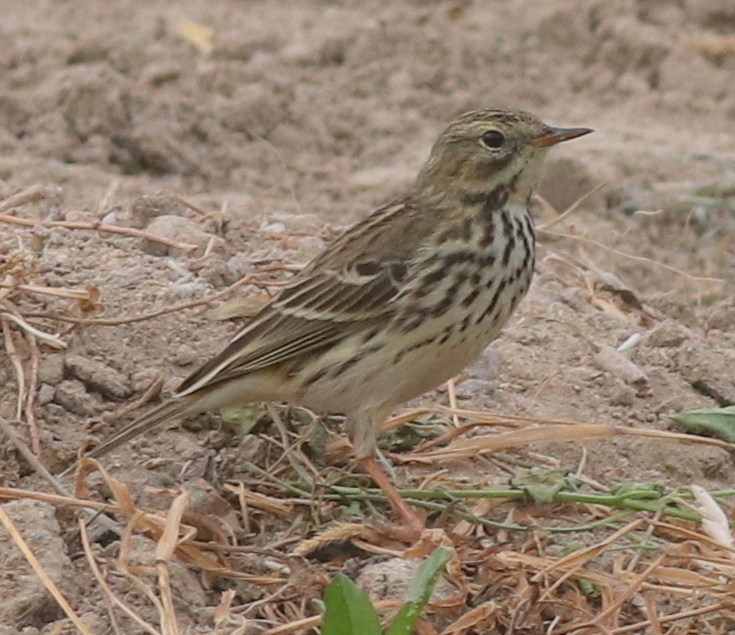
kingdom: Animalia
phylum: Chordata
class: Aves
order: Passeriformes
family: Motacillidae
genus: Anthus
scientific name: Anthus pratensis
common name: Meadow pipit
